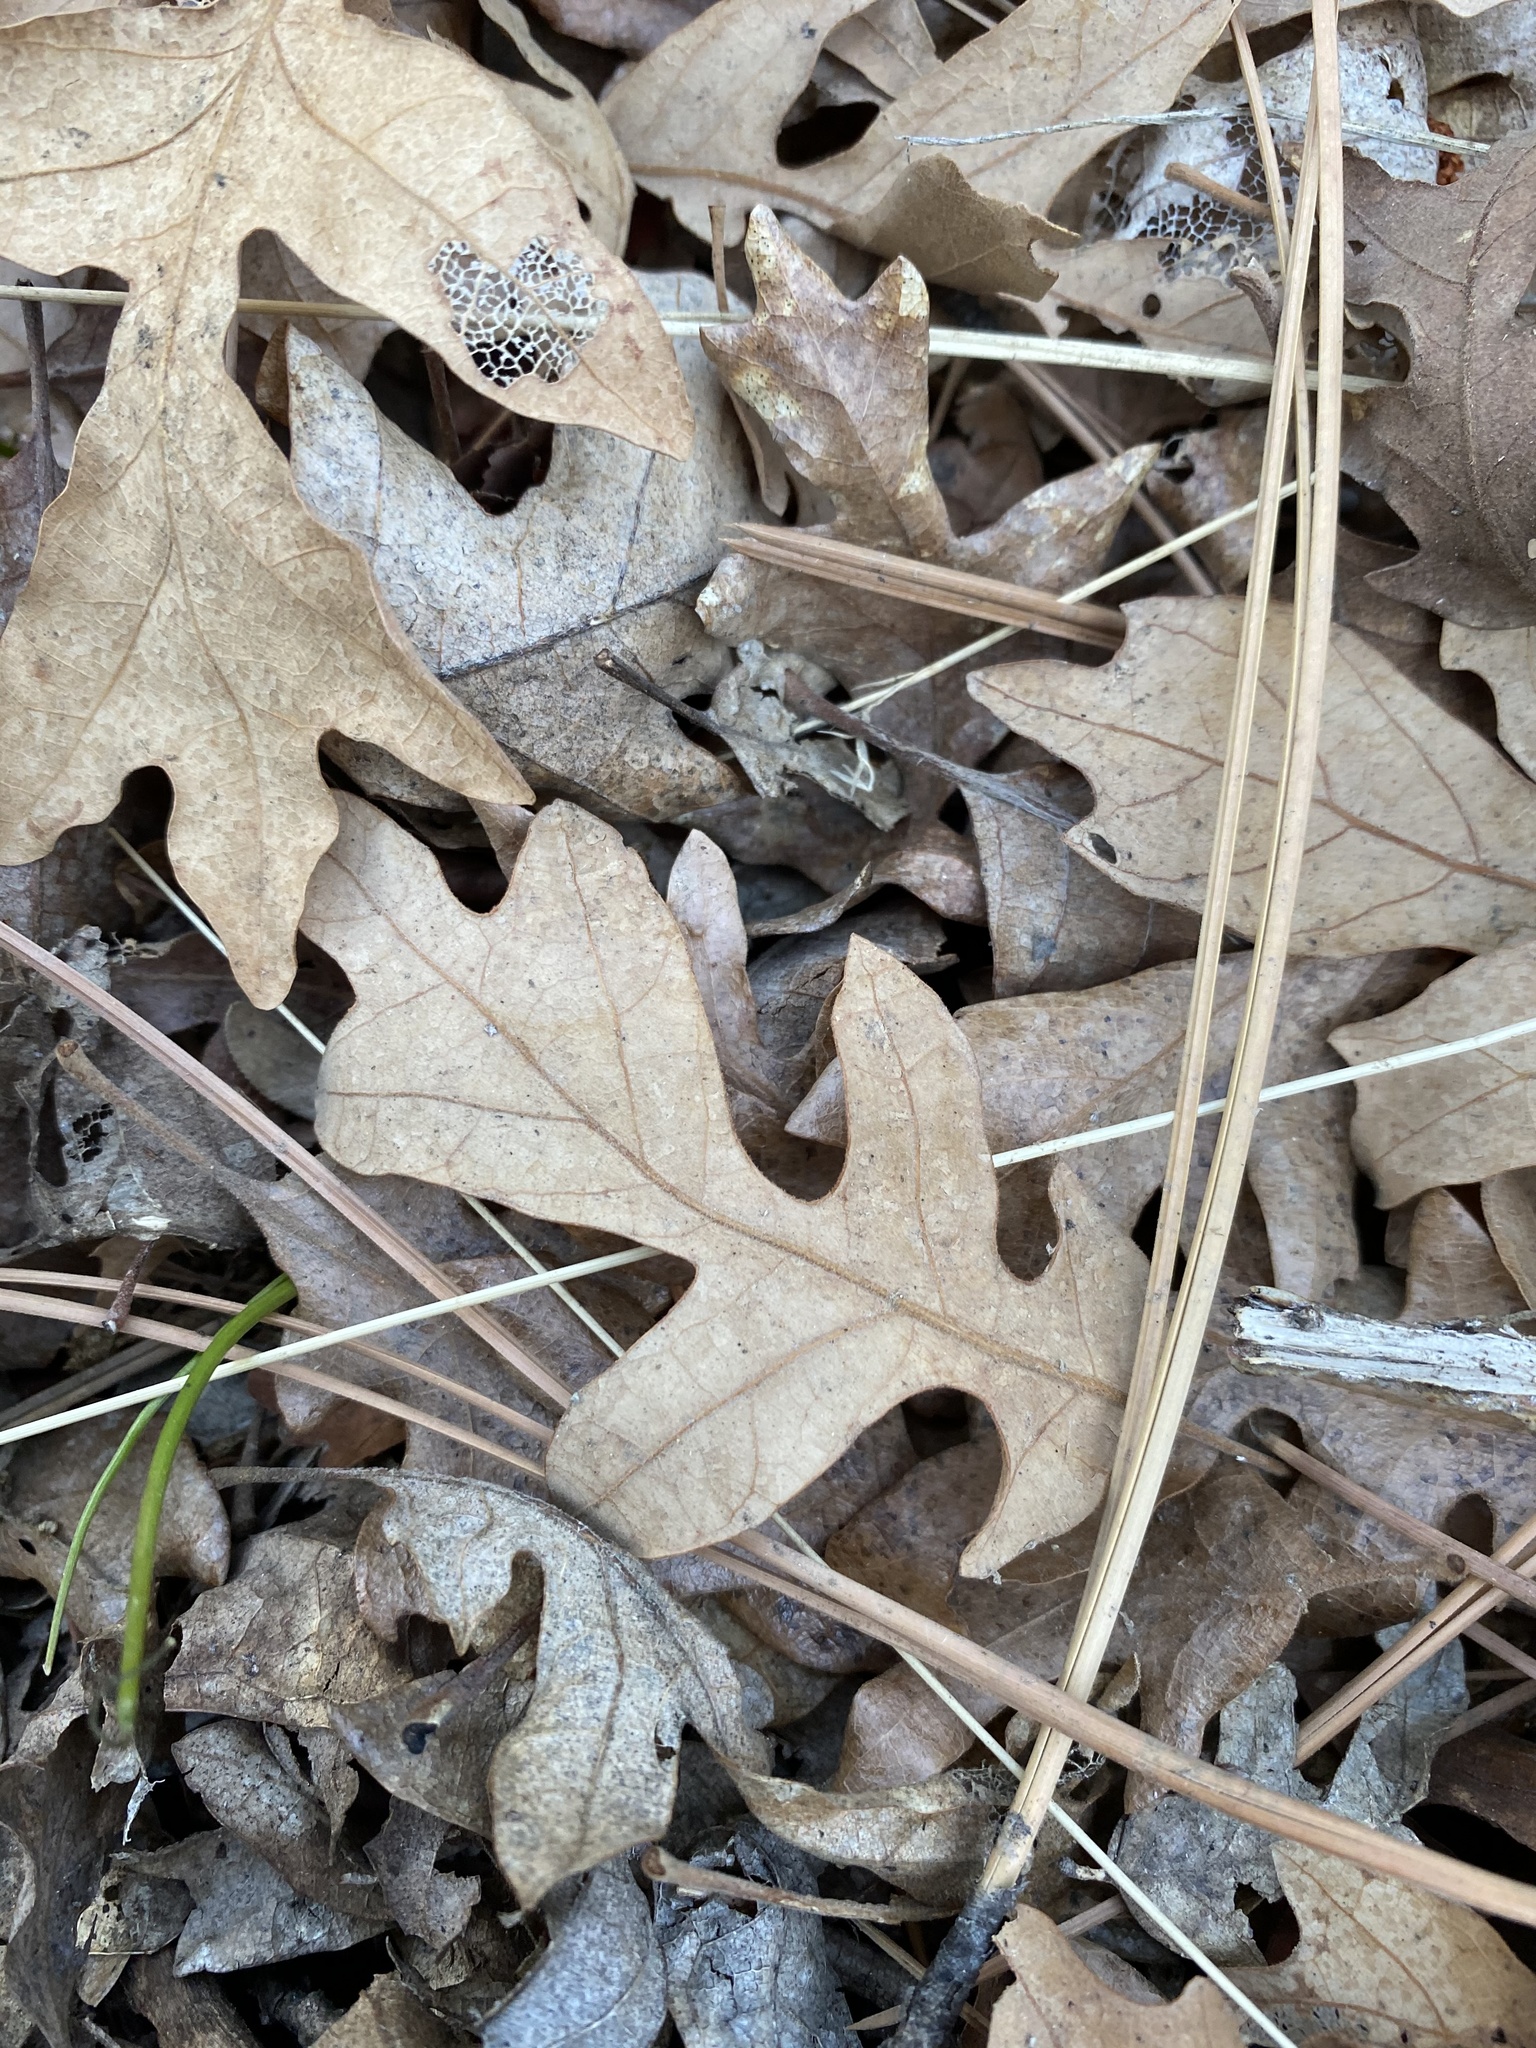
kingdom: Plantae
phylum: Tracheophyta
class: Magnoliopsida
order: Fagales
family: Fagaceae
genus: Quercus
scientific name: Quercus gambelii
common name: Gambel oak
